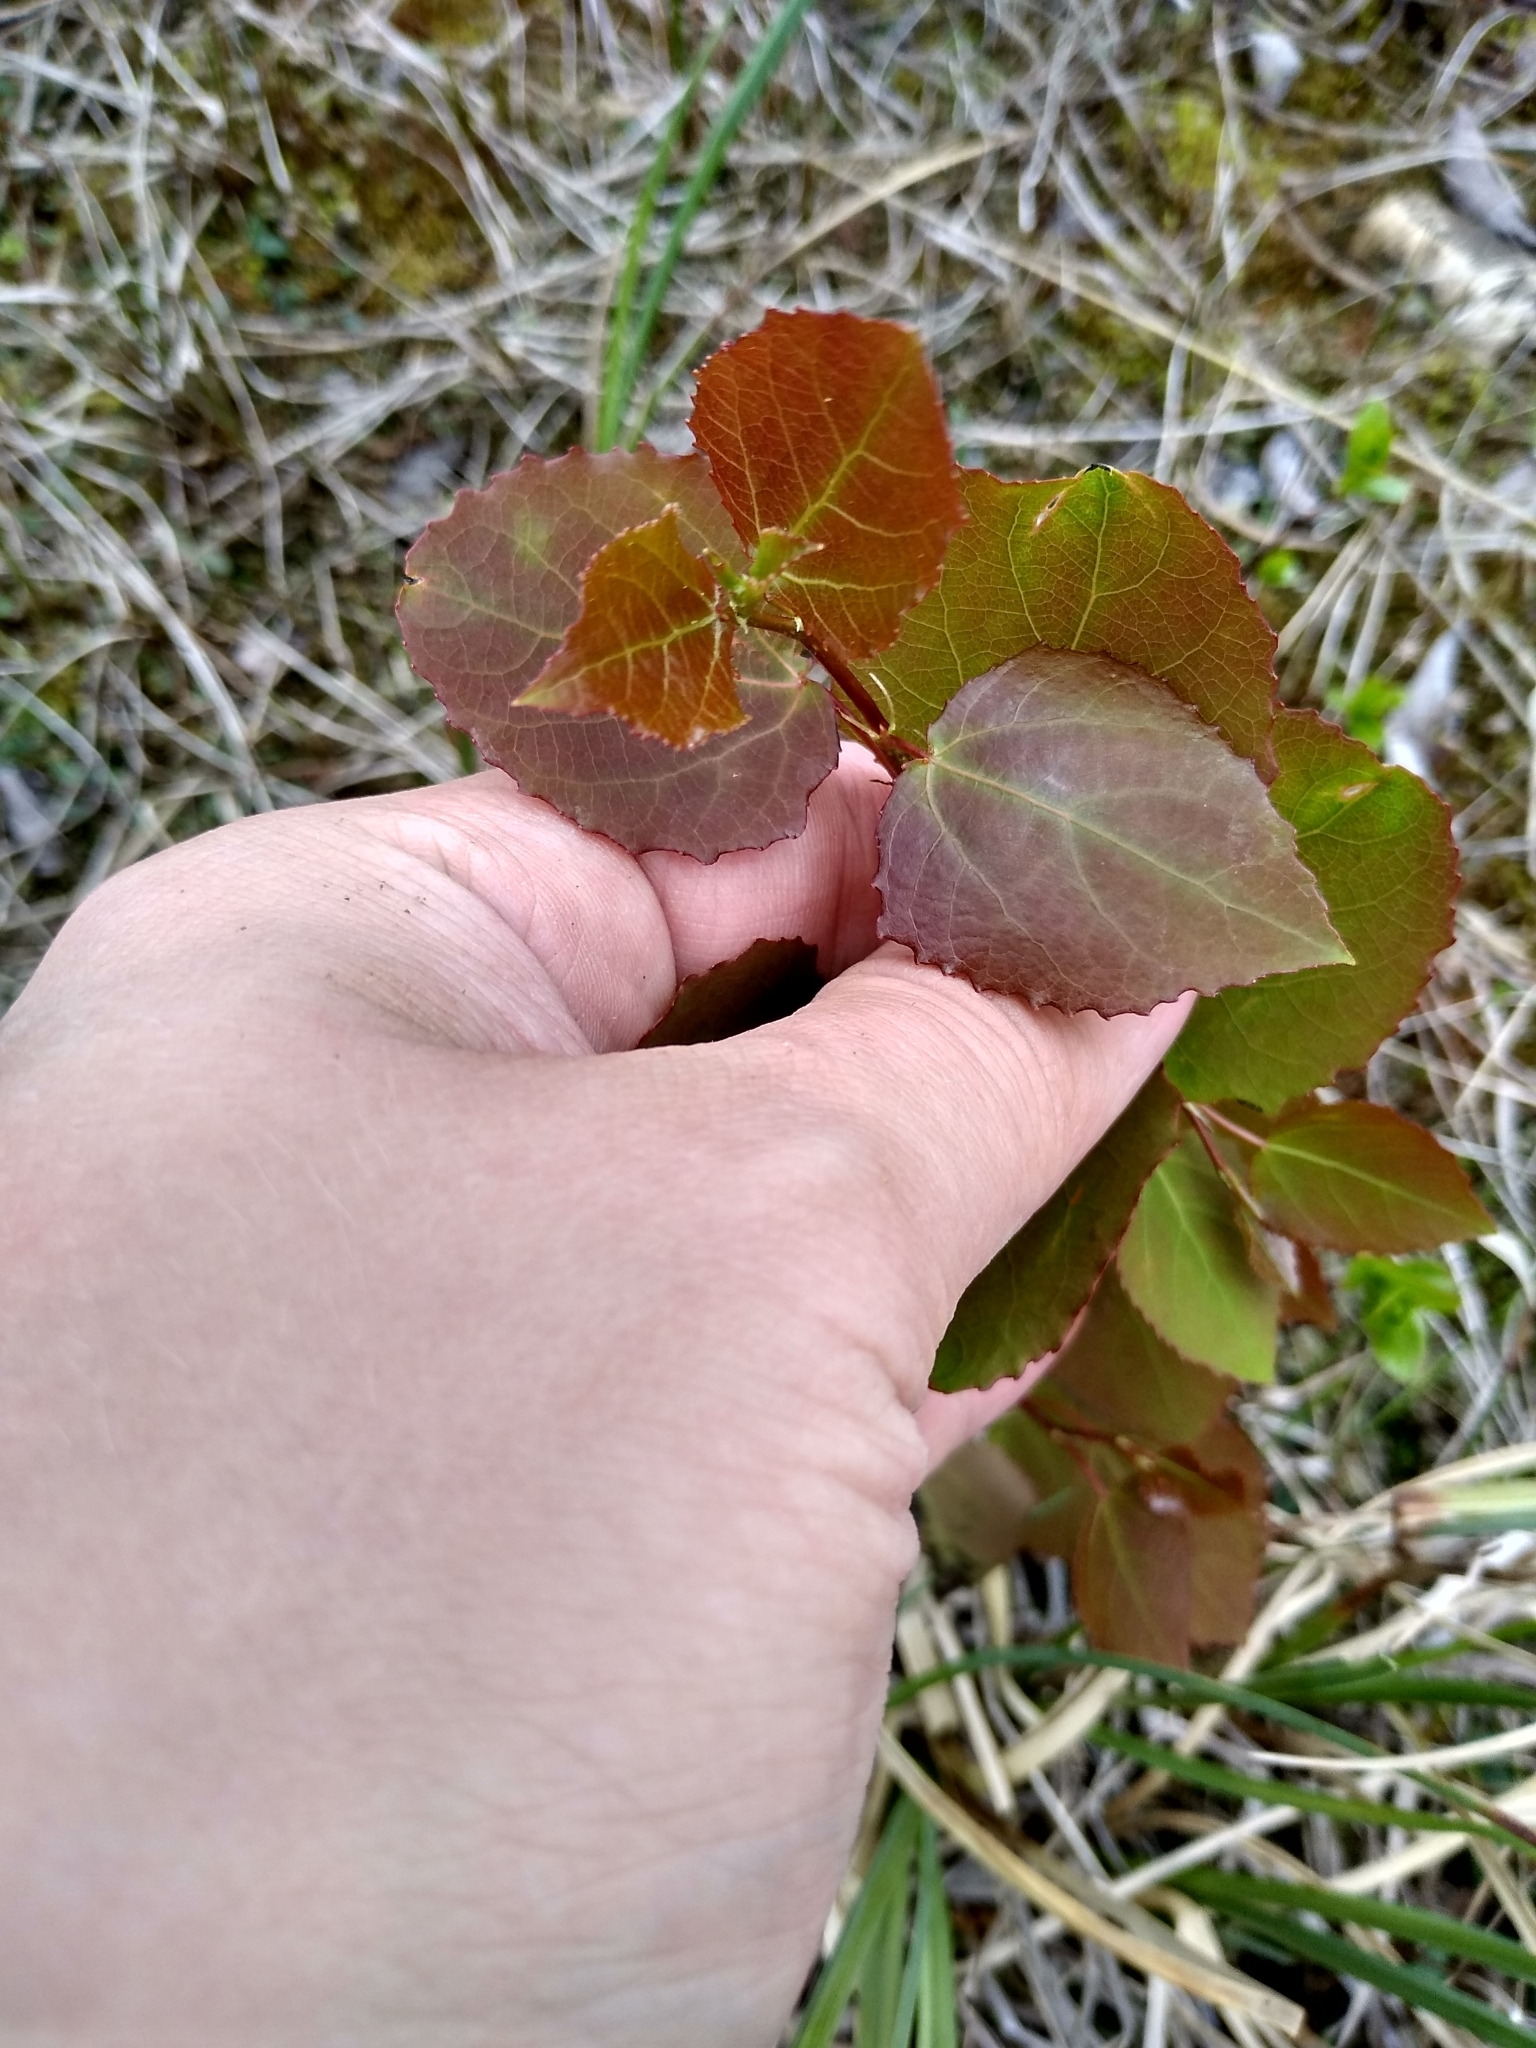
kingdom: Plantae
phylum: Tracheophyta
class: Magnoliopsida
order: Malpighiales
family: Salicaceae
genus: Populus
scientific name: Populus tremula
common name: European aspen
